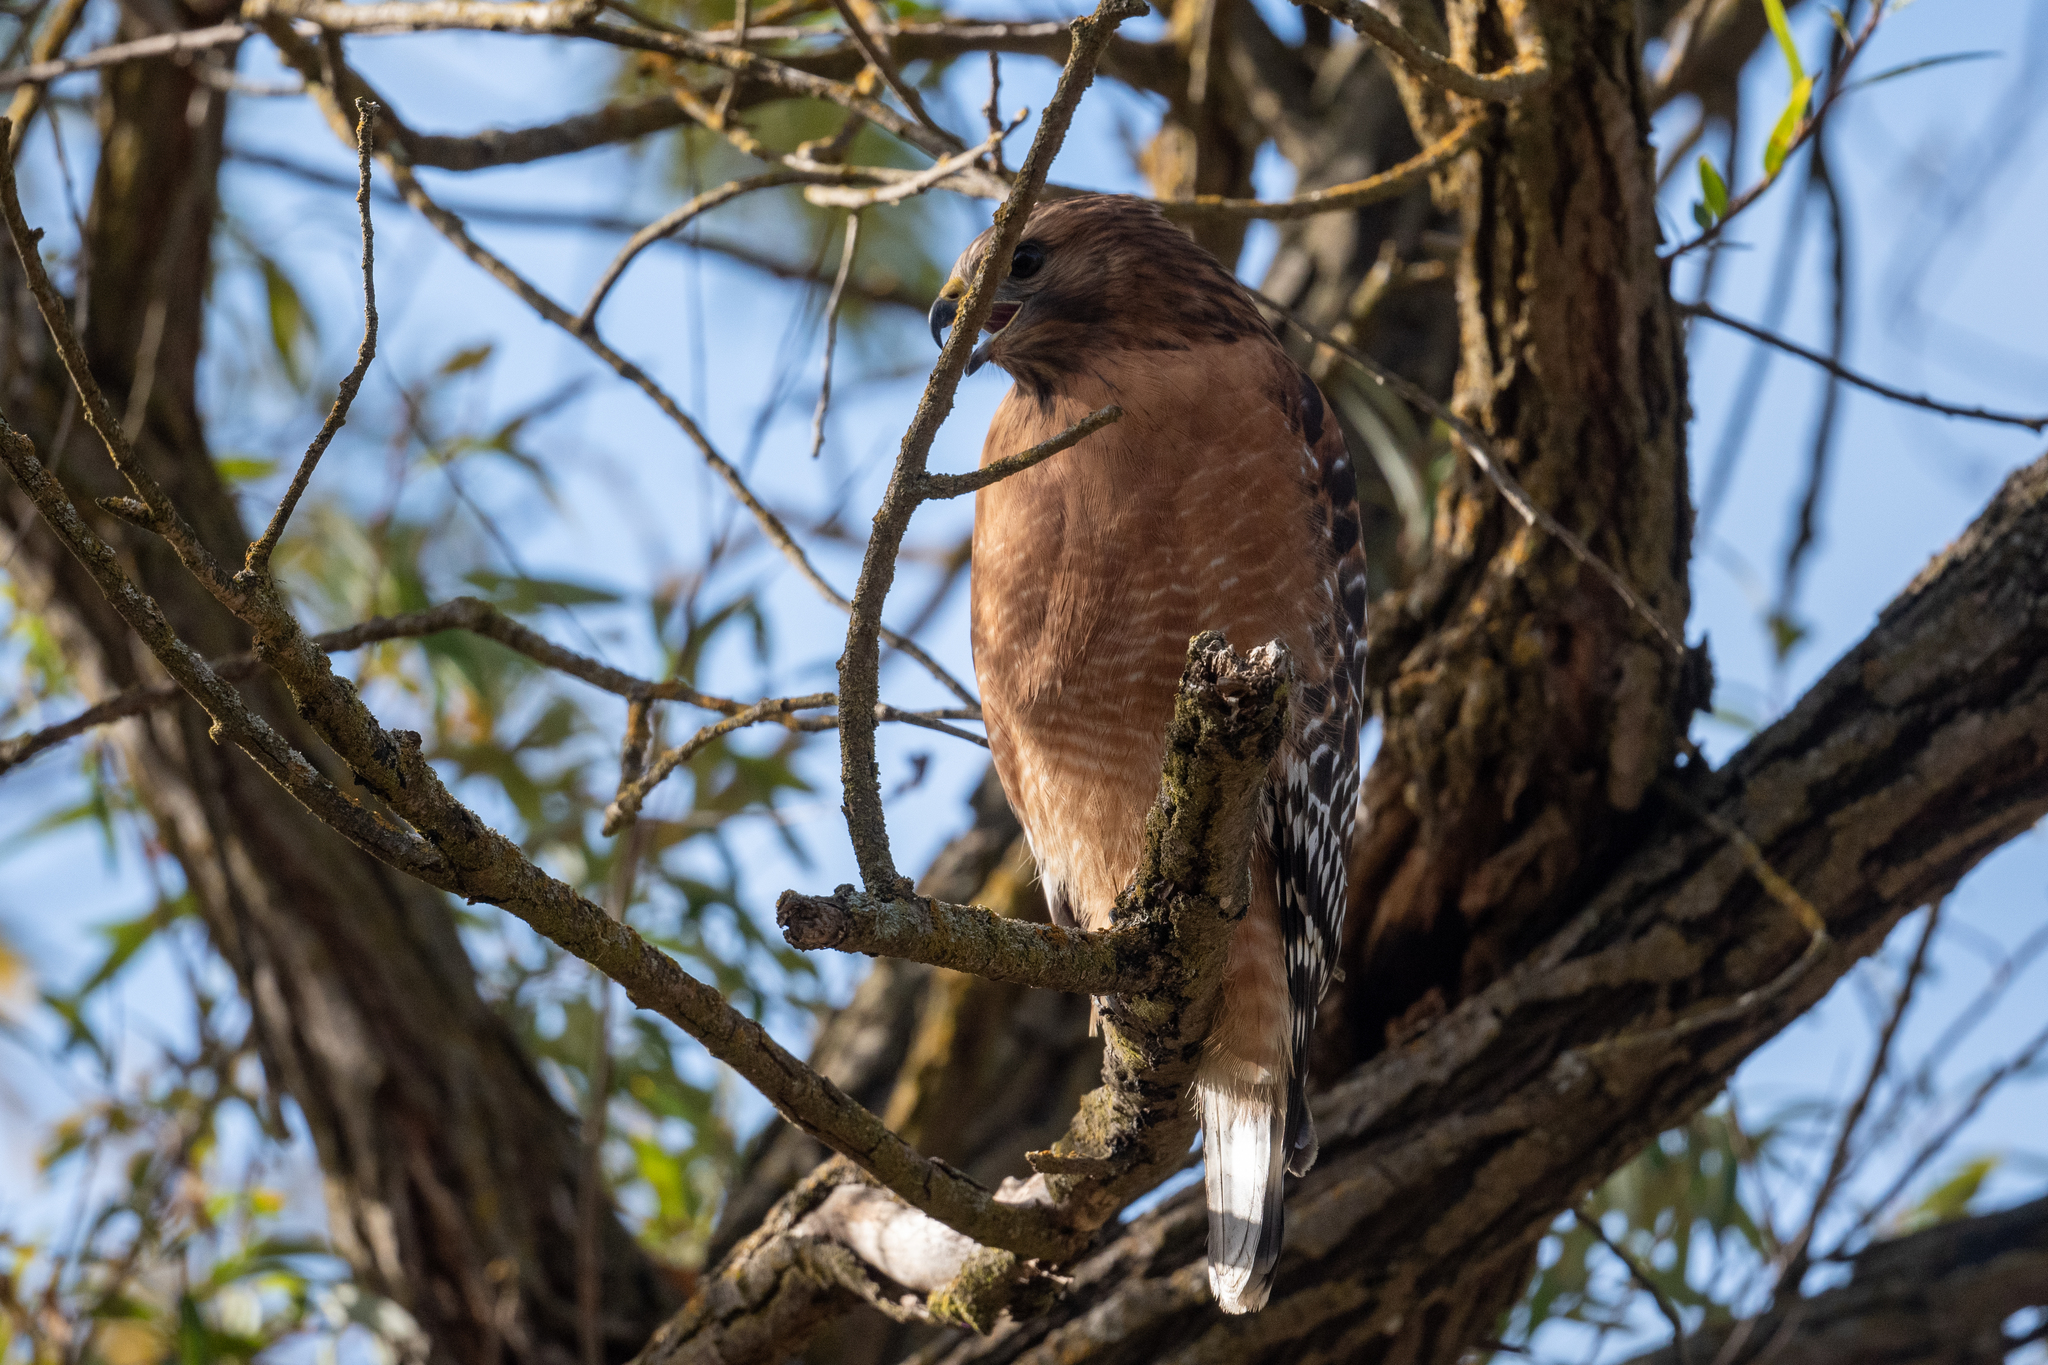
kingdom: Animalia
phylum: Chordata
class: Aves
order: Accipitriformes
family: Accipitridae
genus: Buteo
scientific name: Buteo lineatus
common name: Red-shouldered hawk
